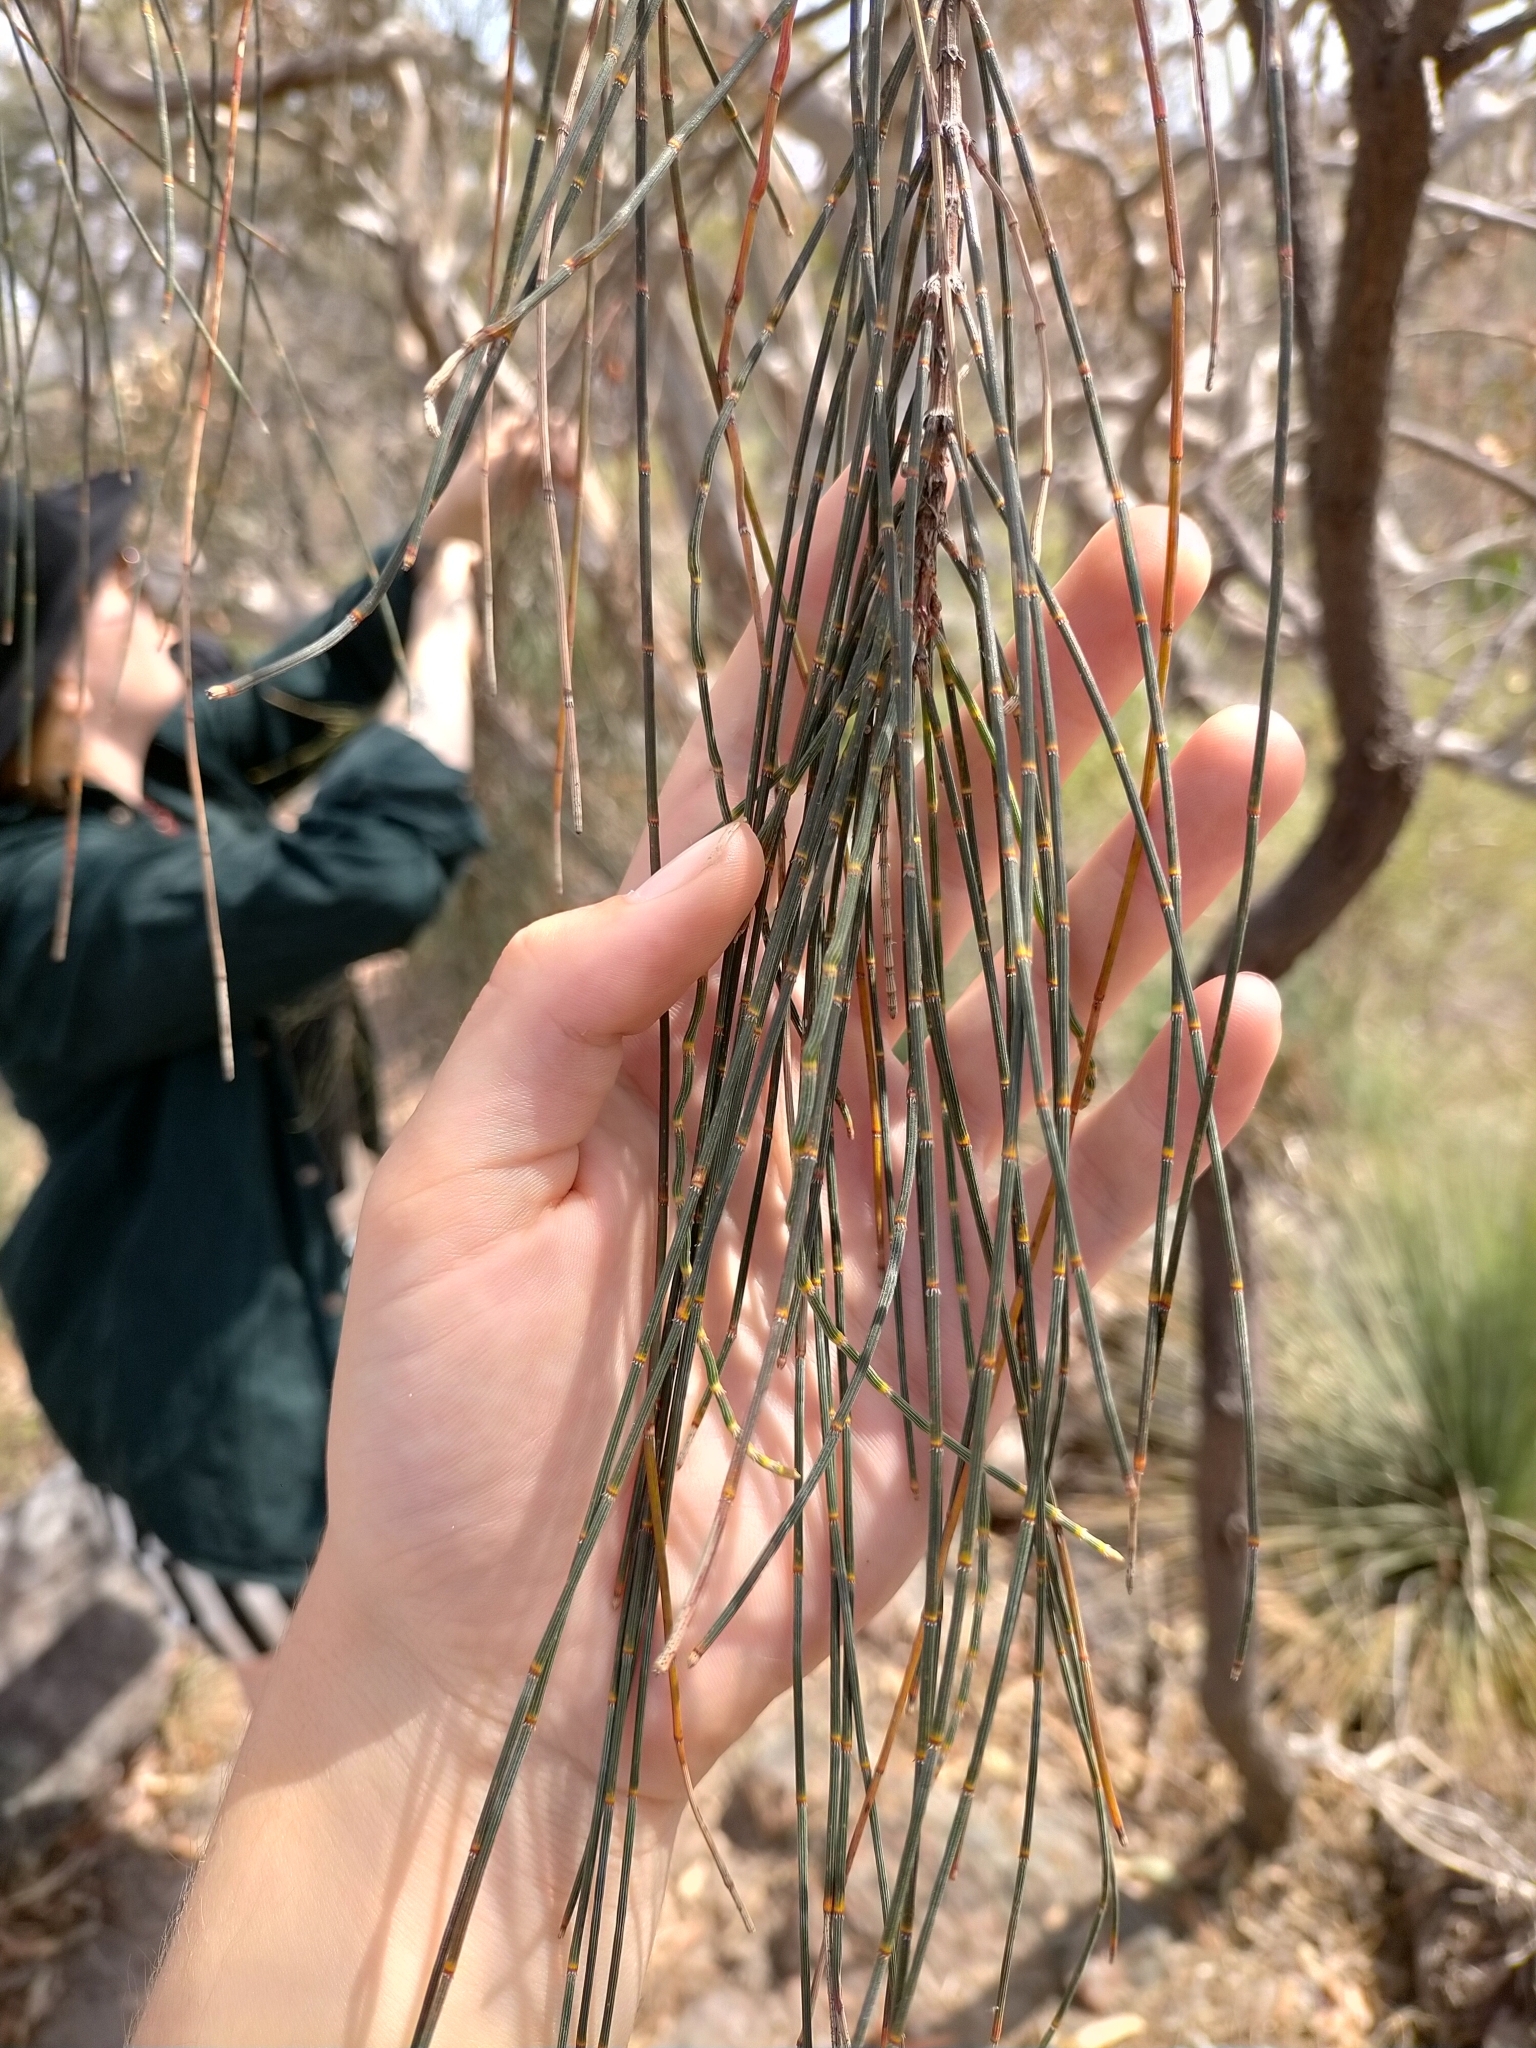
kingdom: Plantae
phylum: Tracheophyta
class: Magnoliopsida
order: Fagales
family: Casuarinaceae
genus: Allocasuarina
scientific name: Allocasuarina verticillata
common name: Drooping she-oak
